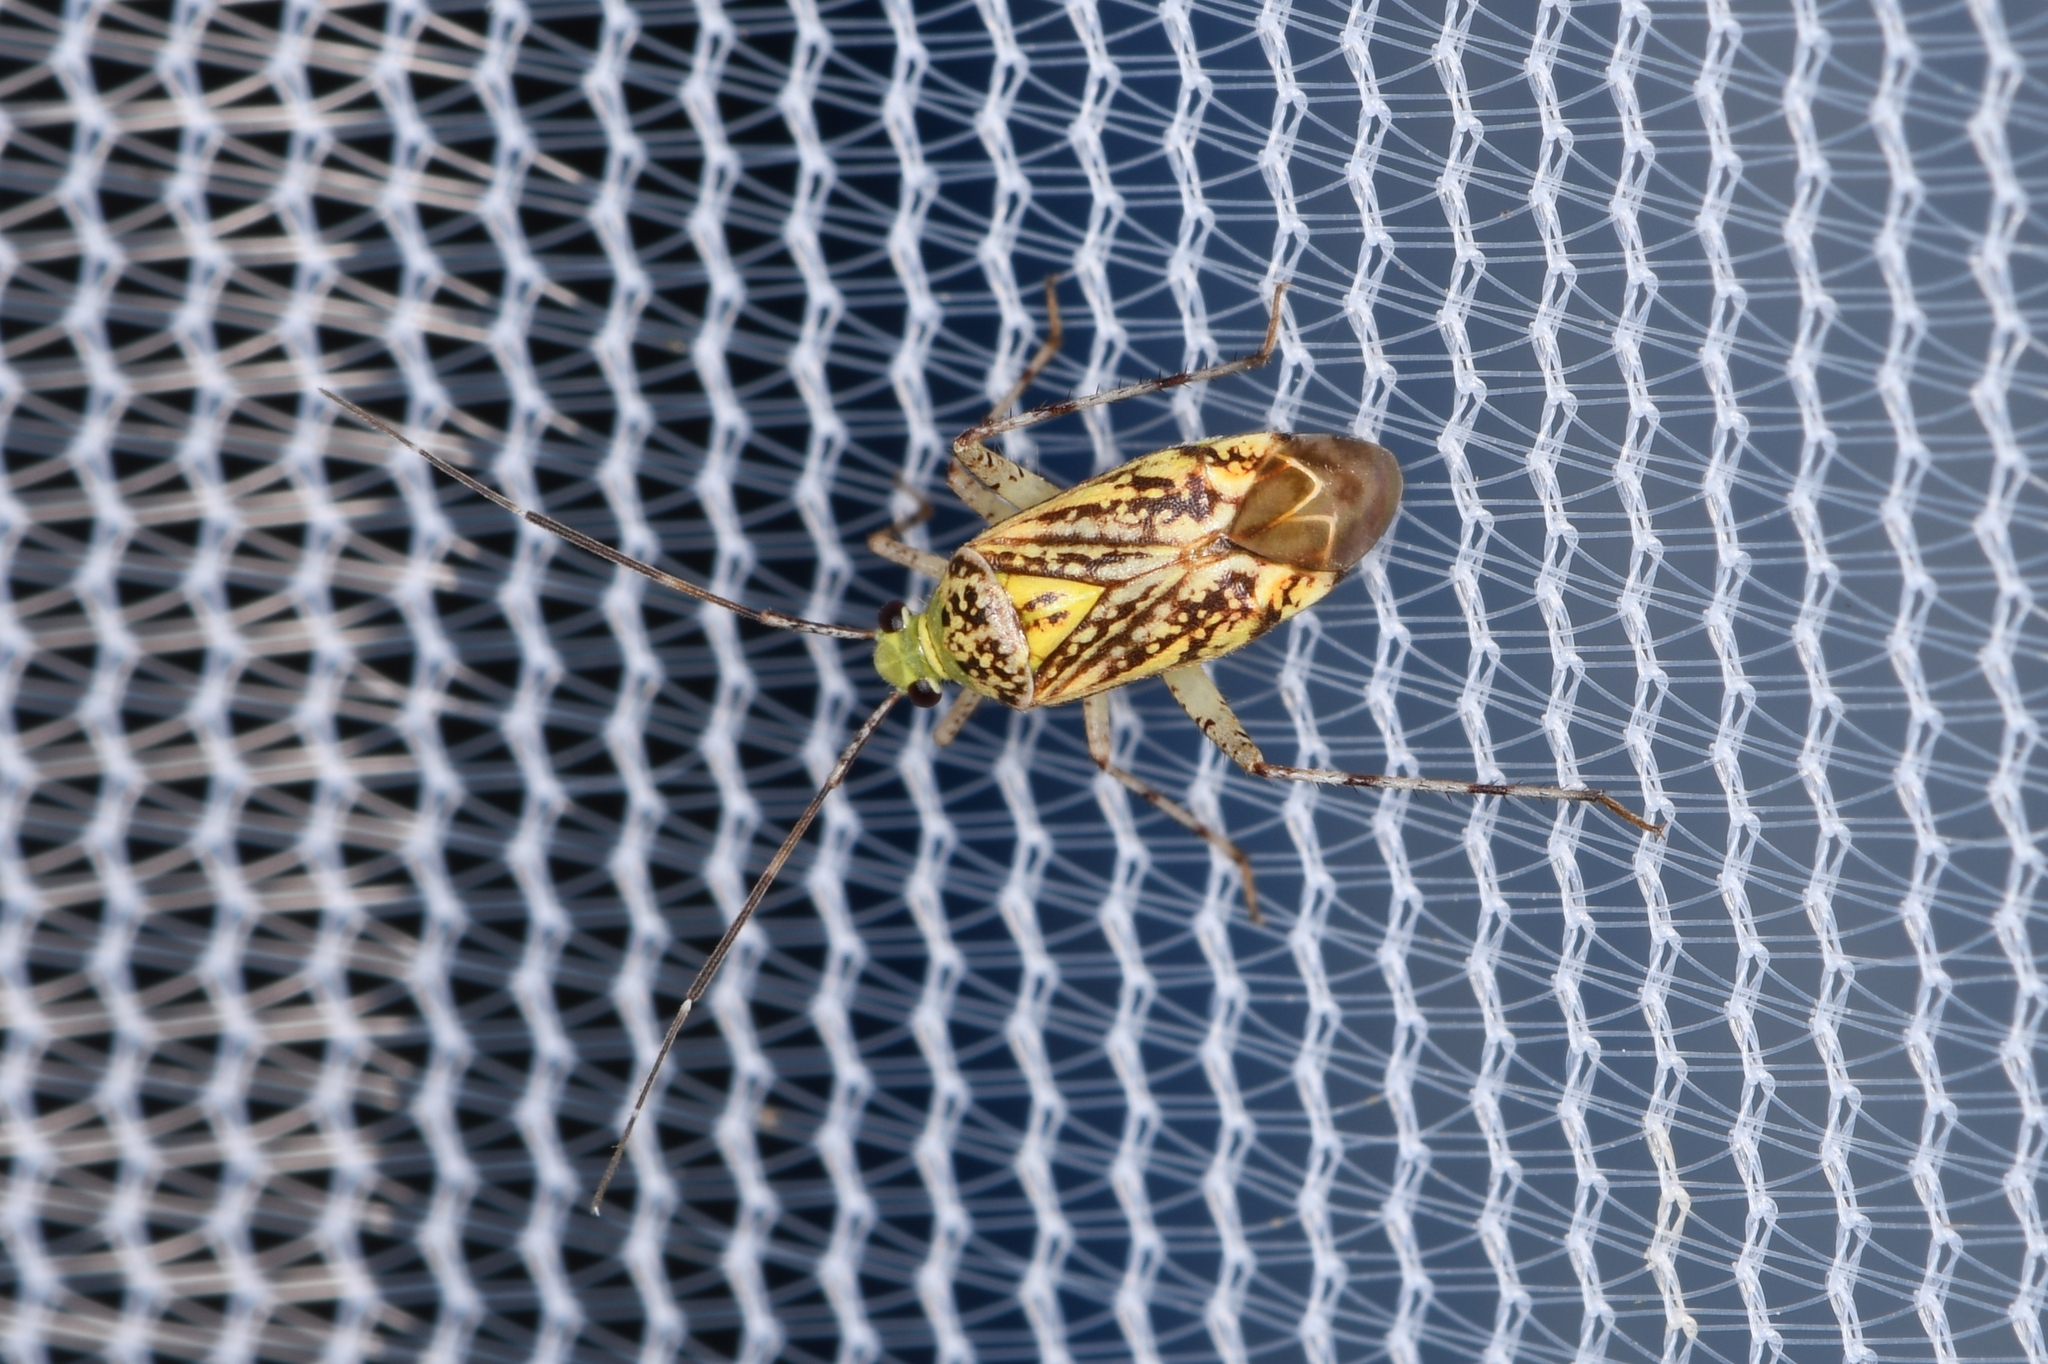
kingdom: Animalia
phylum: Arthropoda
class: Insecta
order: Hemiptera
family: Miridae
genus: Taedia
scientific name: Taedia marmorata
